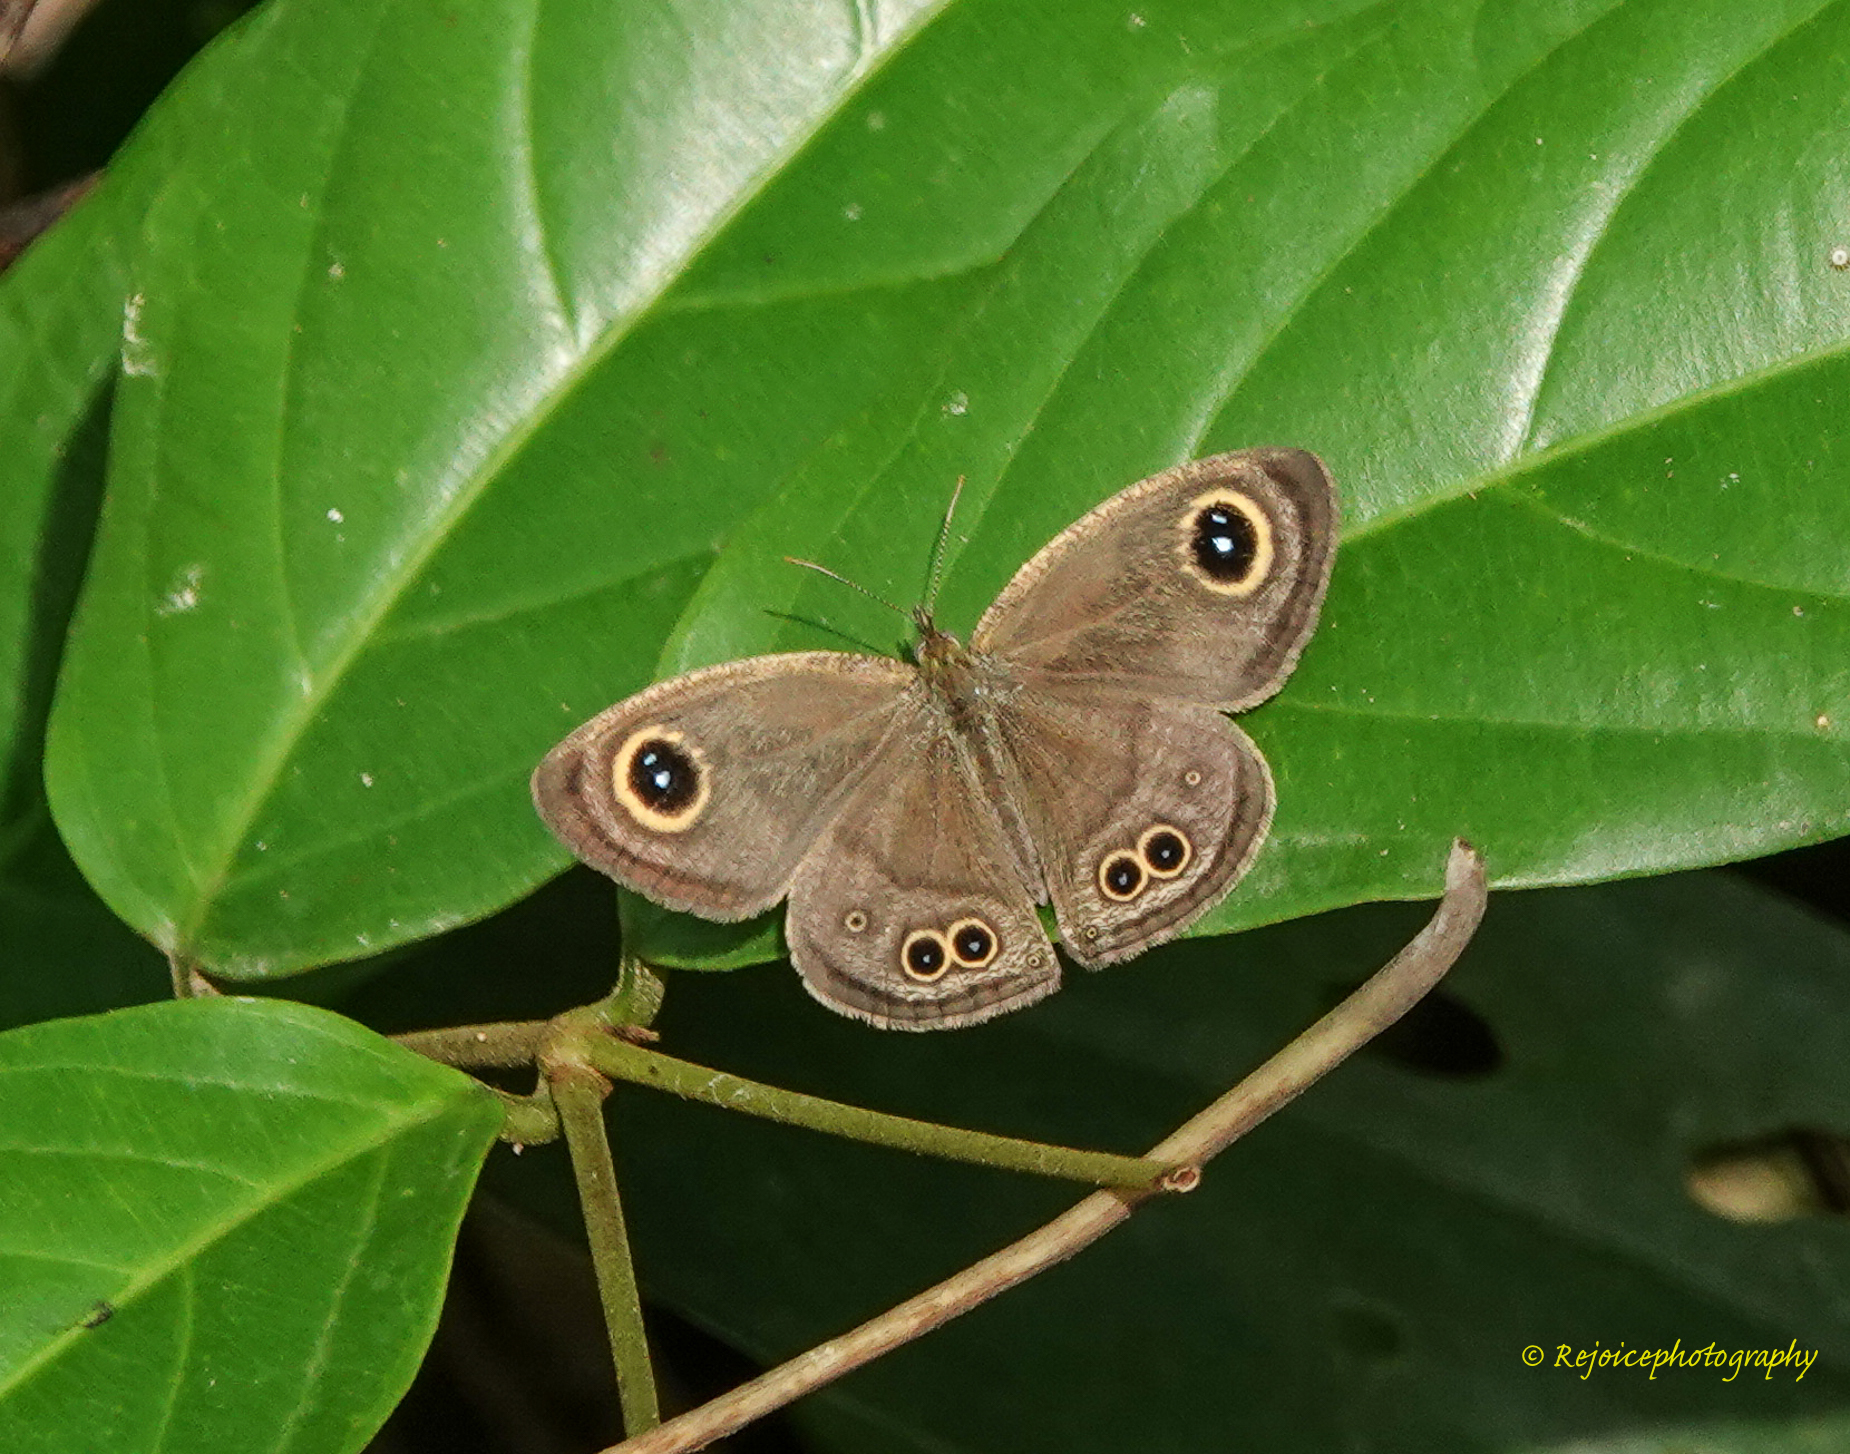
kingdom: Animalia
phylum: Arthropoda
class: Insecta
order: Lepidoptera
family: Nymphalidae
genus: Ypthima
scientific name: Ypthima huebneri
